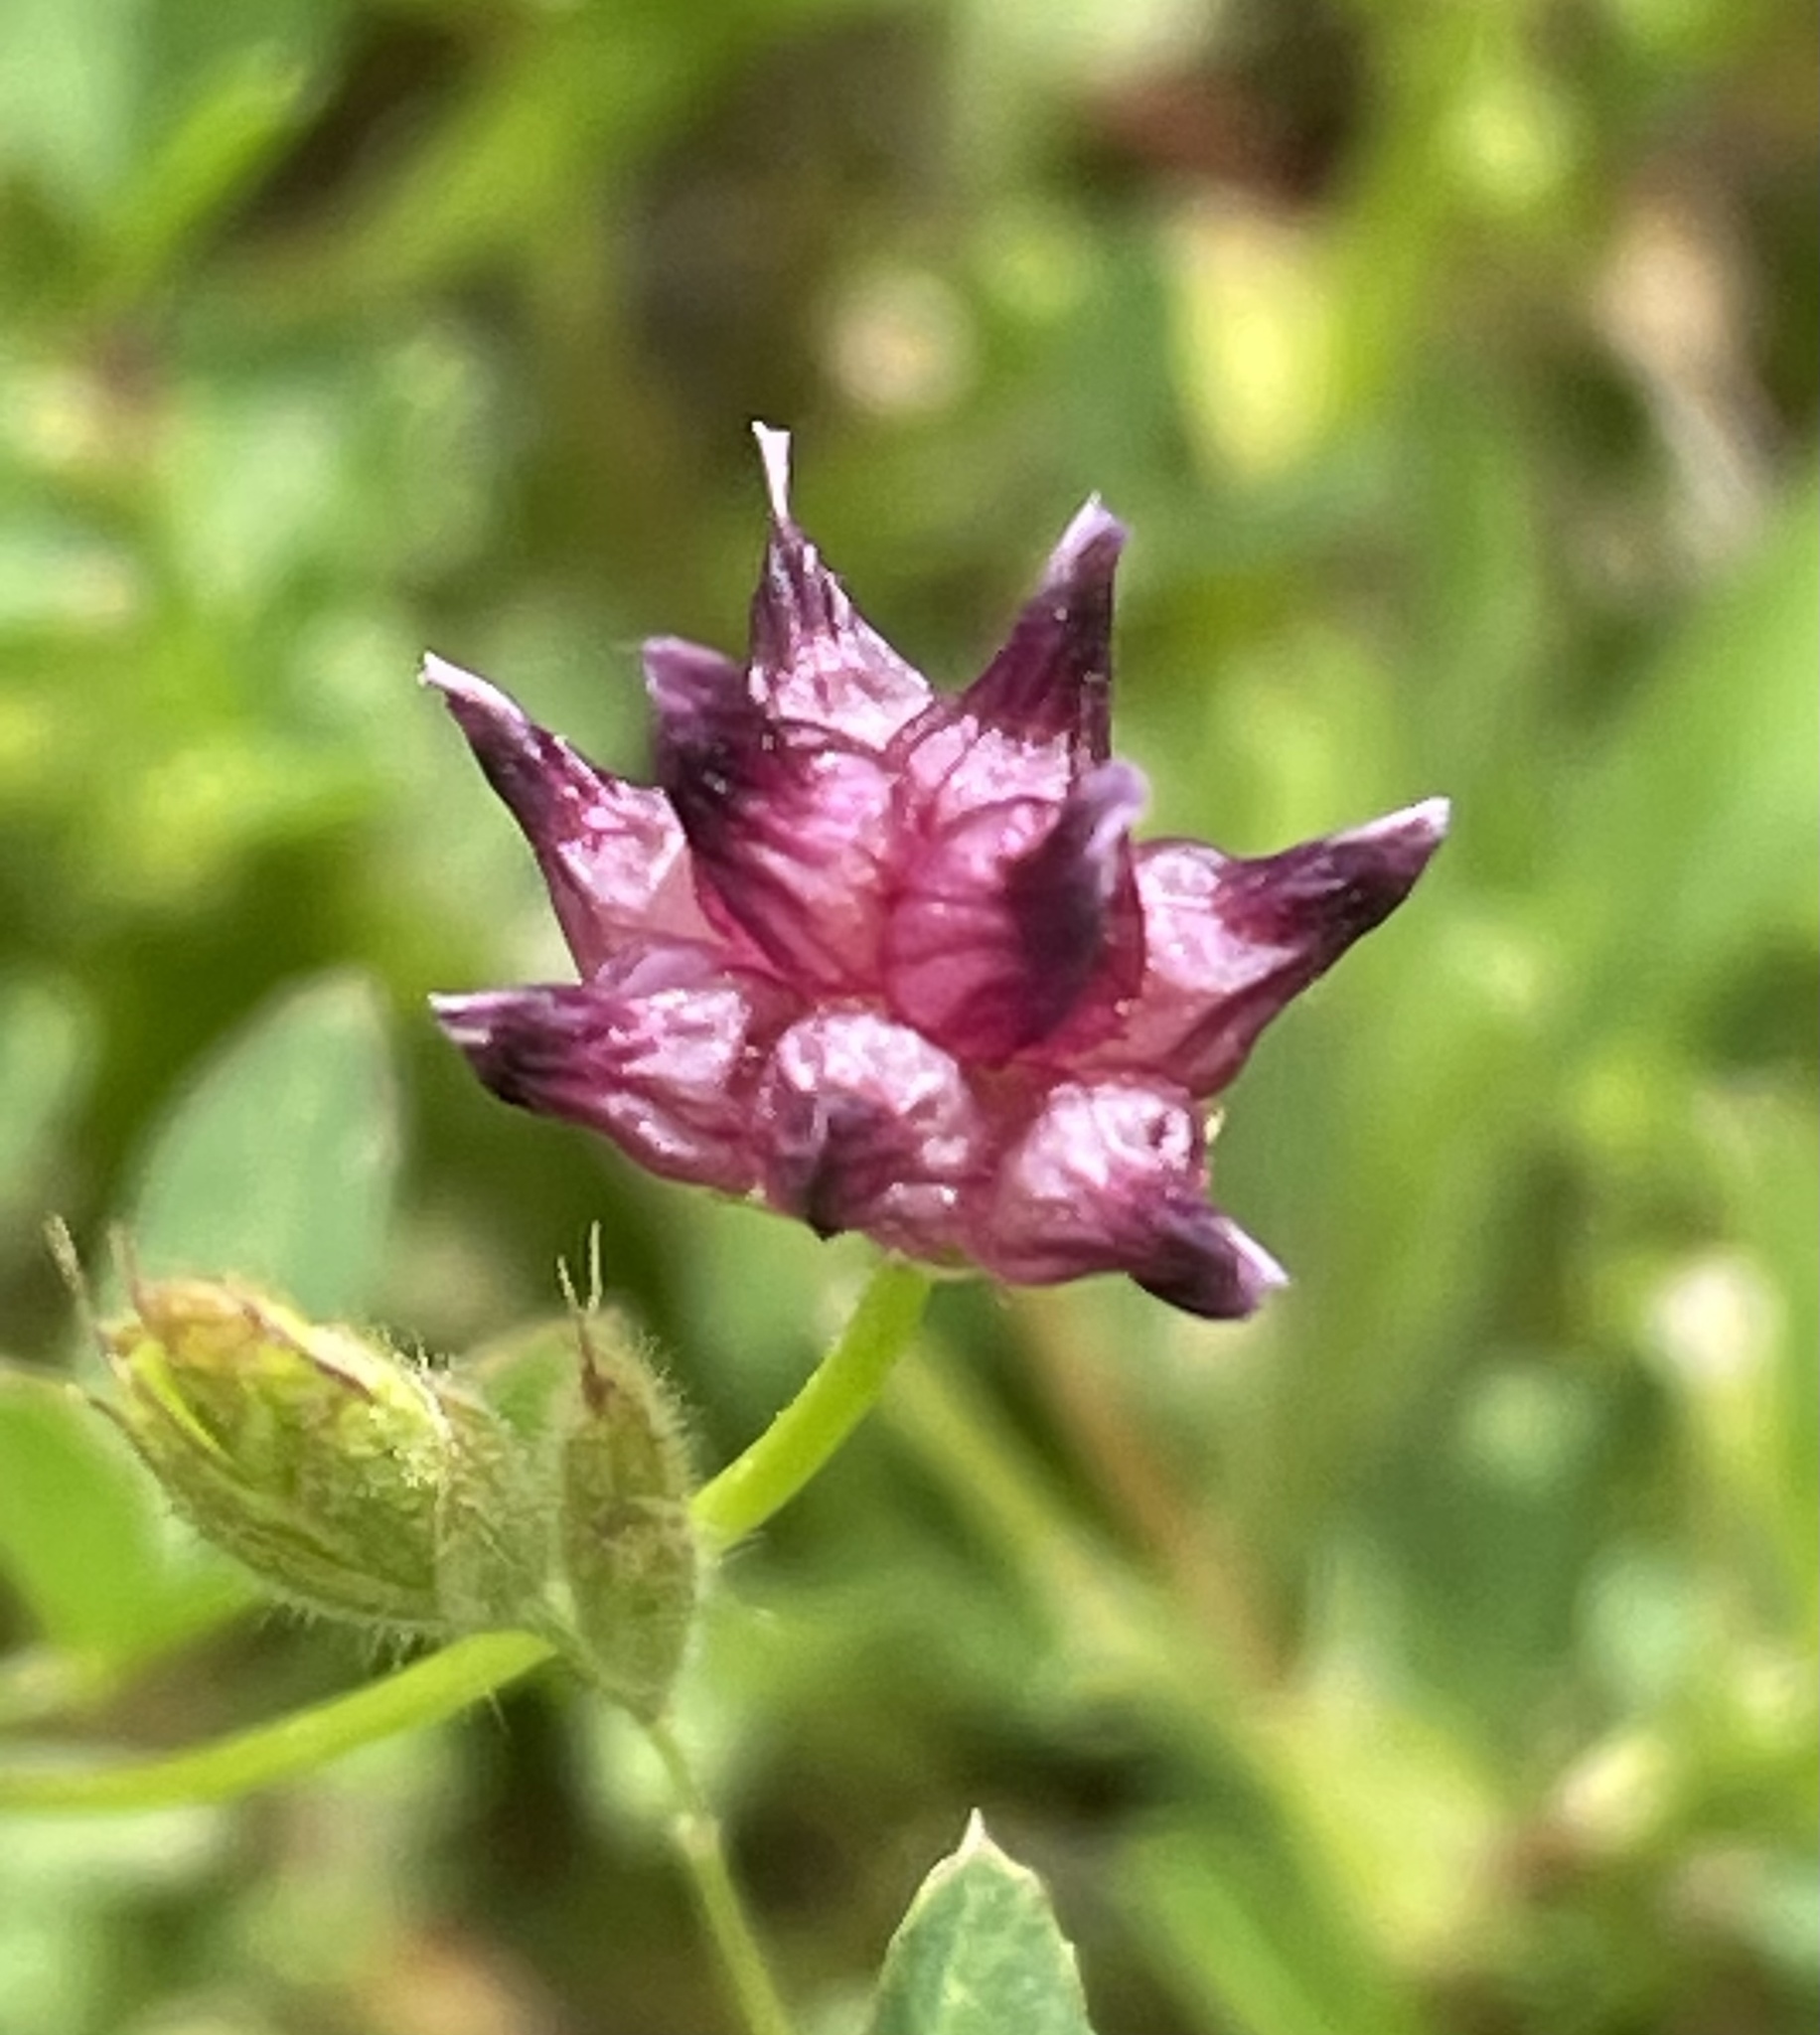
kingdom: Plantae
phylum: Tracheophyta
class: Magnoliopsida
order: Fabales
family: Fabaceae
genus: Trifolium
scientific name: Trifolium depauperatum
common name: Poverty clover
